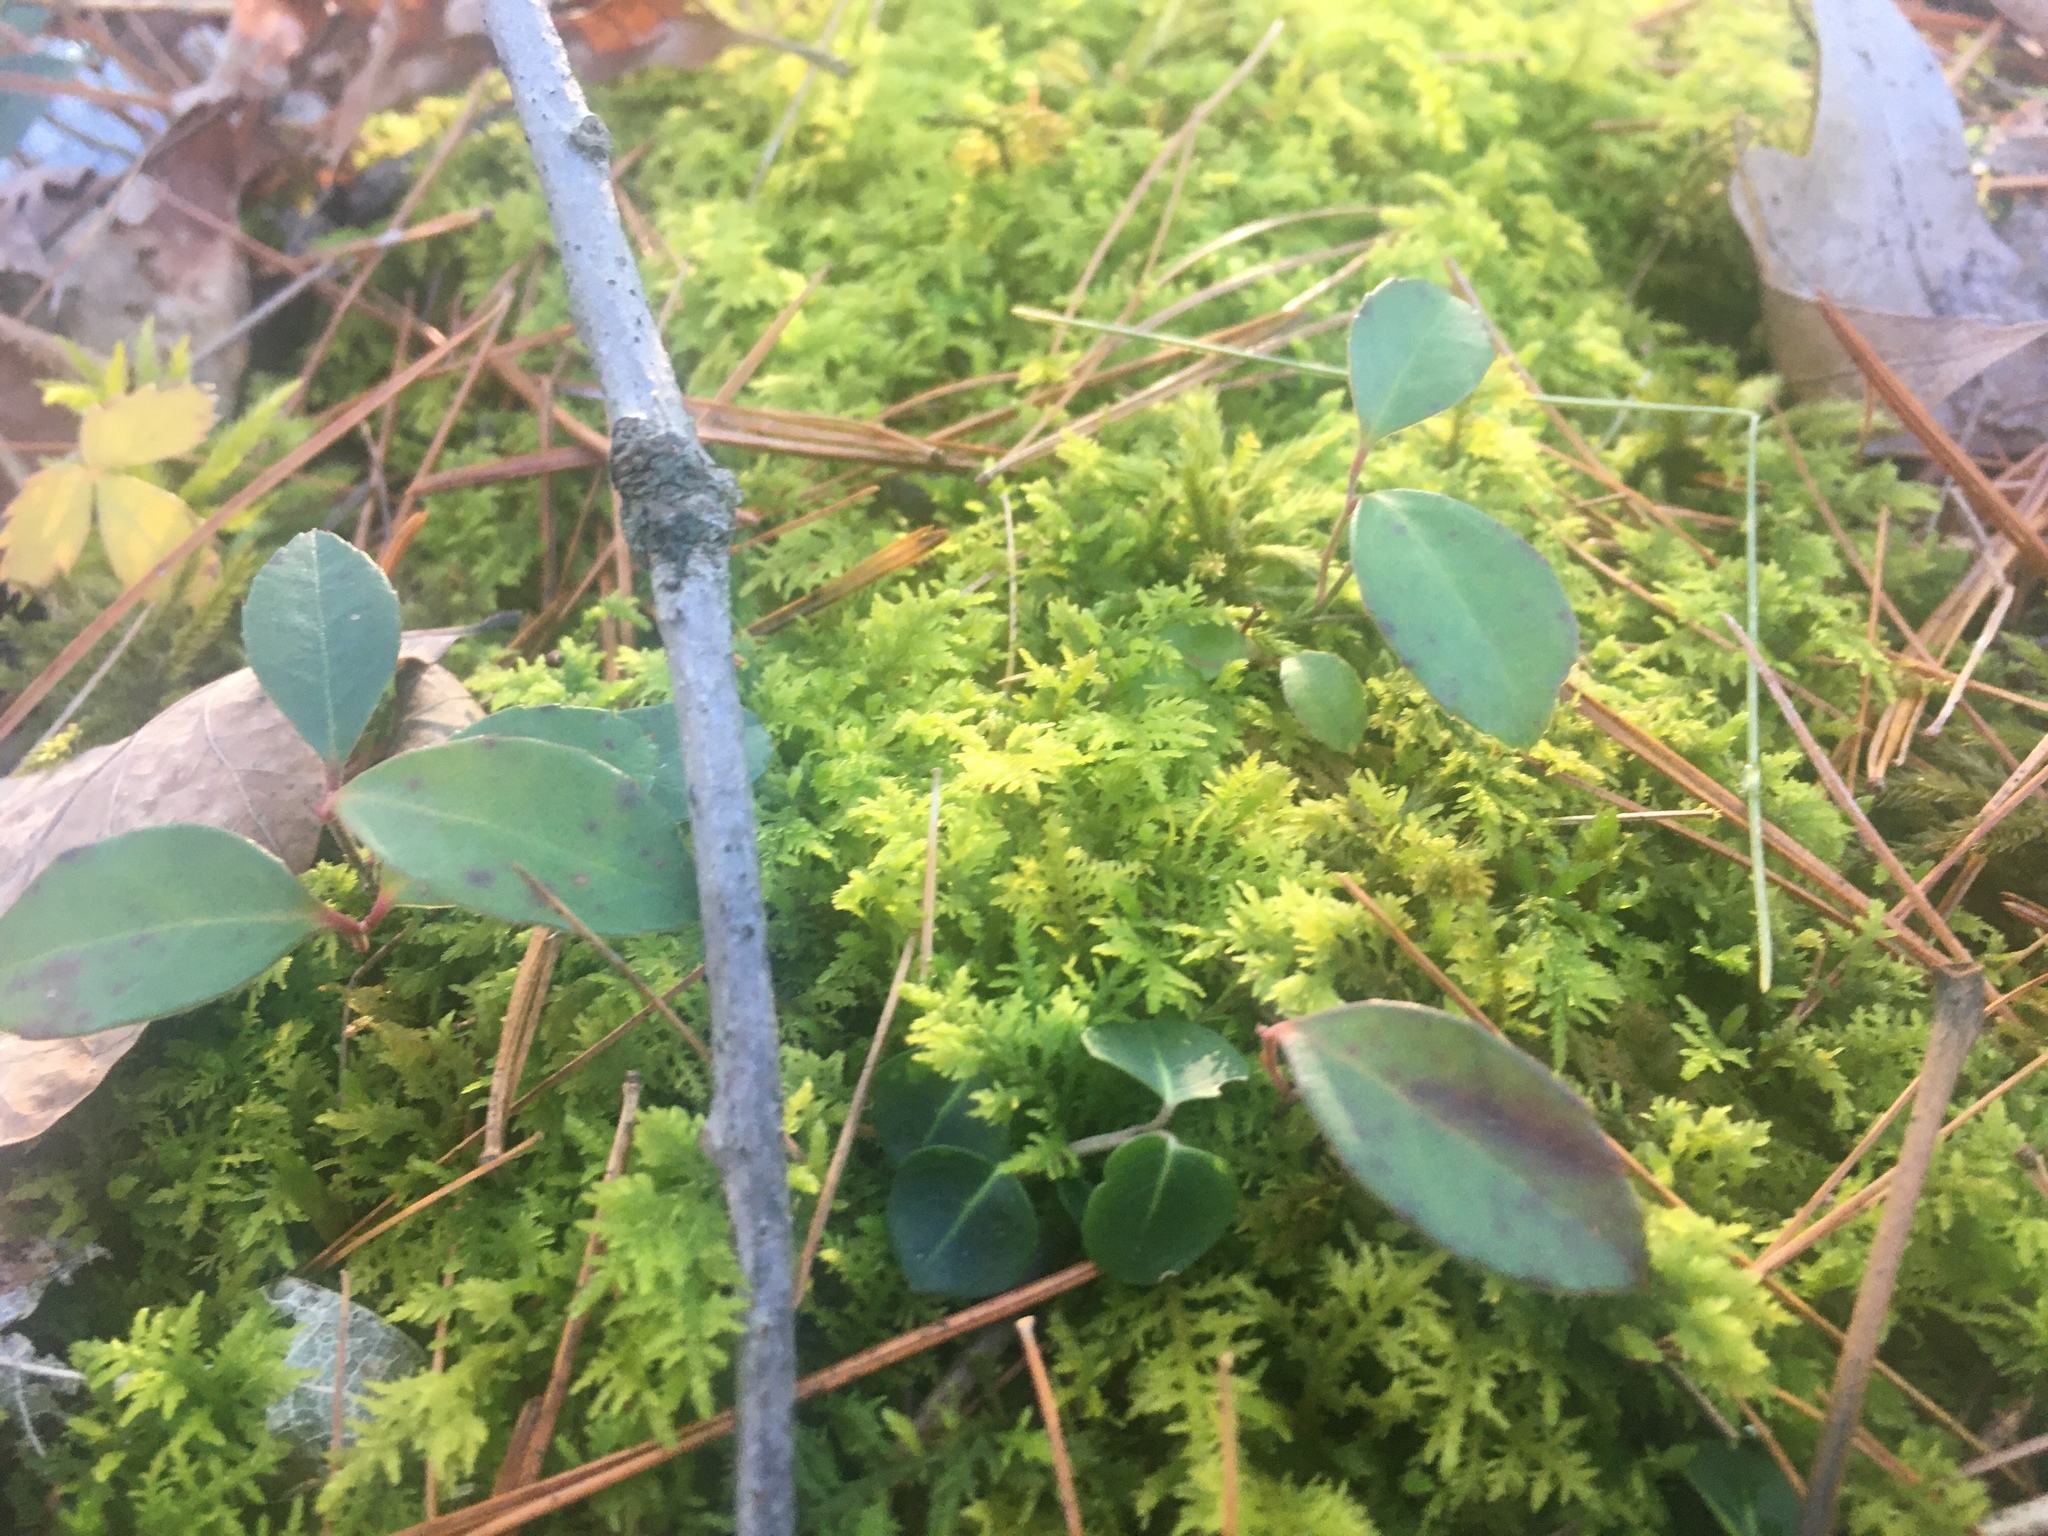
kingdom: Plantae
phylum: Bryophyta
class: Bryopsida
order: Hypnales
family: Thuidiaceae
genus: Thuidium
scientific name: Thuidium delicatulum
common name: Delicate fern moss
